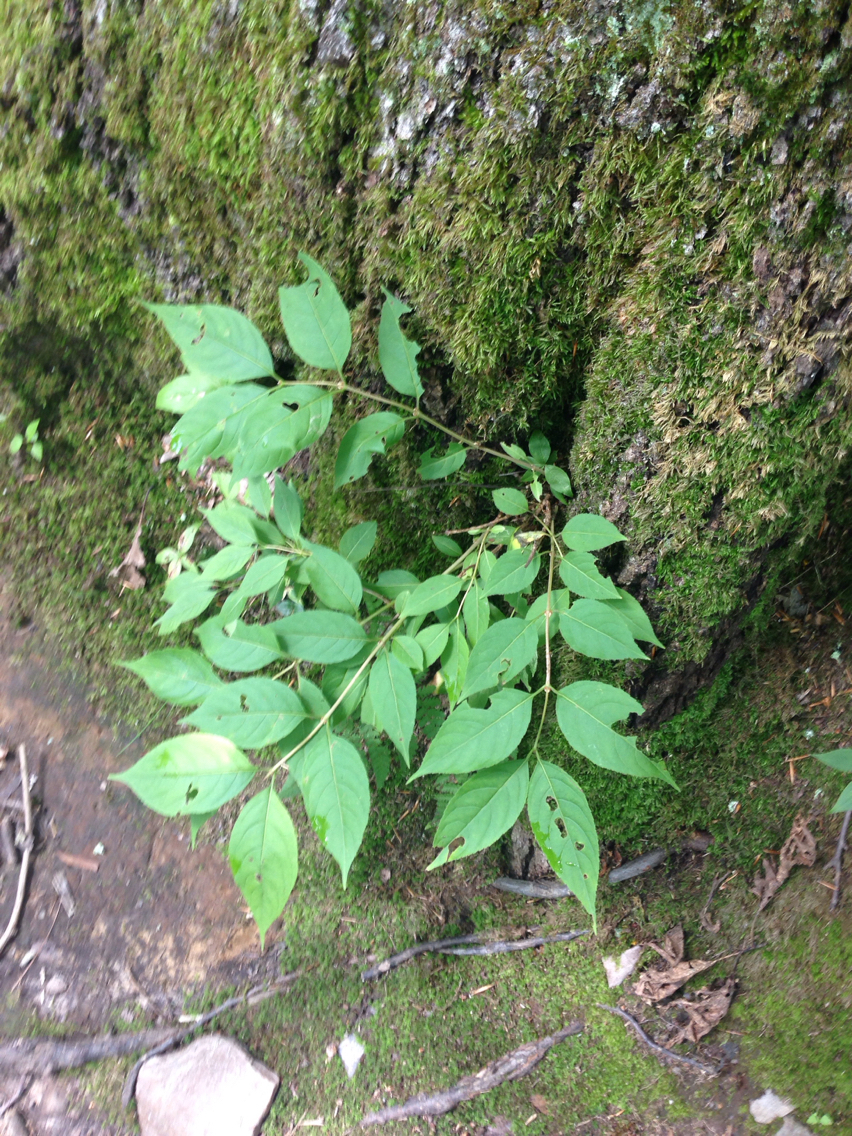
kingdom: Plantae
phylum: Tracheophyta
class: Magnoliopsida
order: Dipsacales
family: Caprifoliaceae
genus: Diervilla
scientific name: Diervilla lonicera
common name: Bush-honeysuckle
